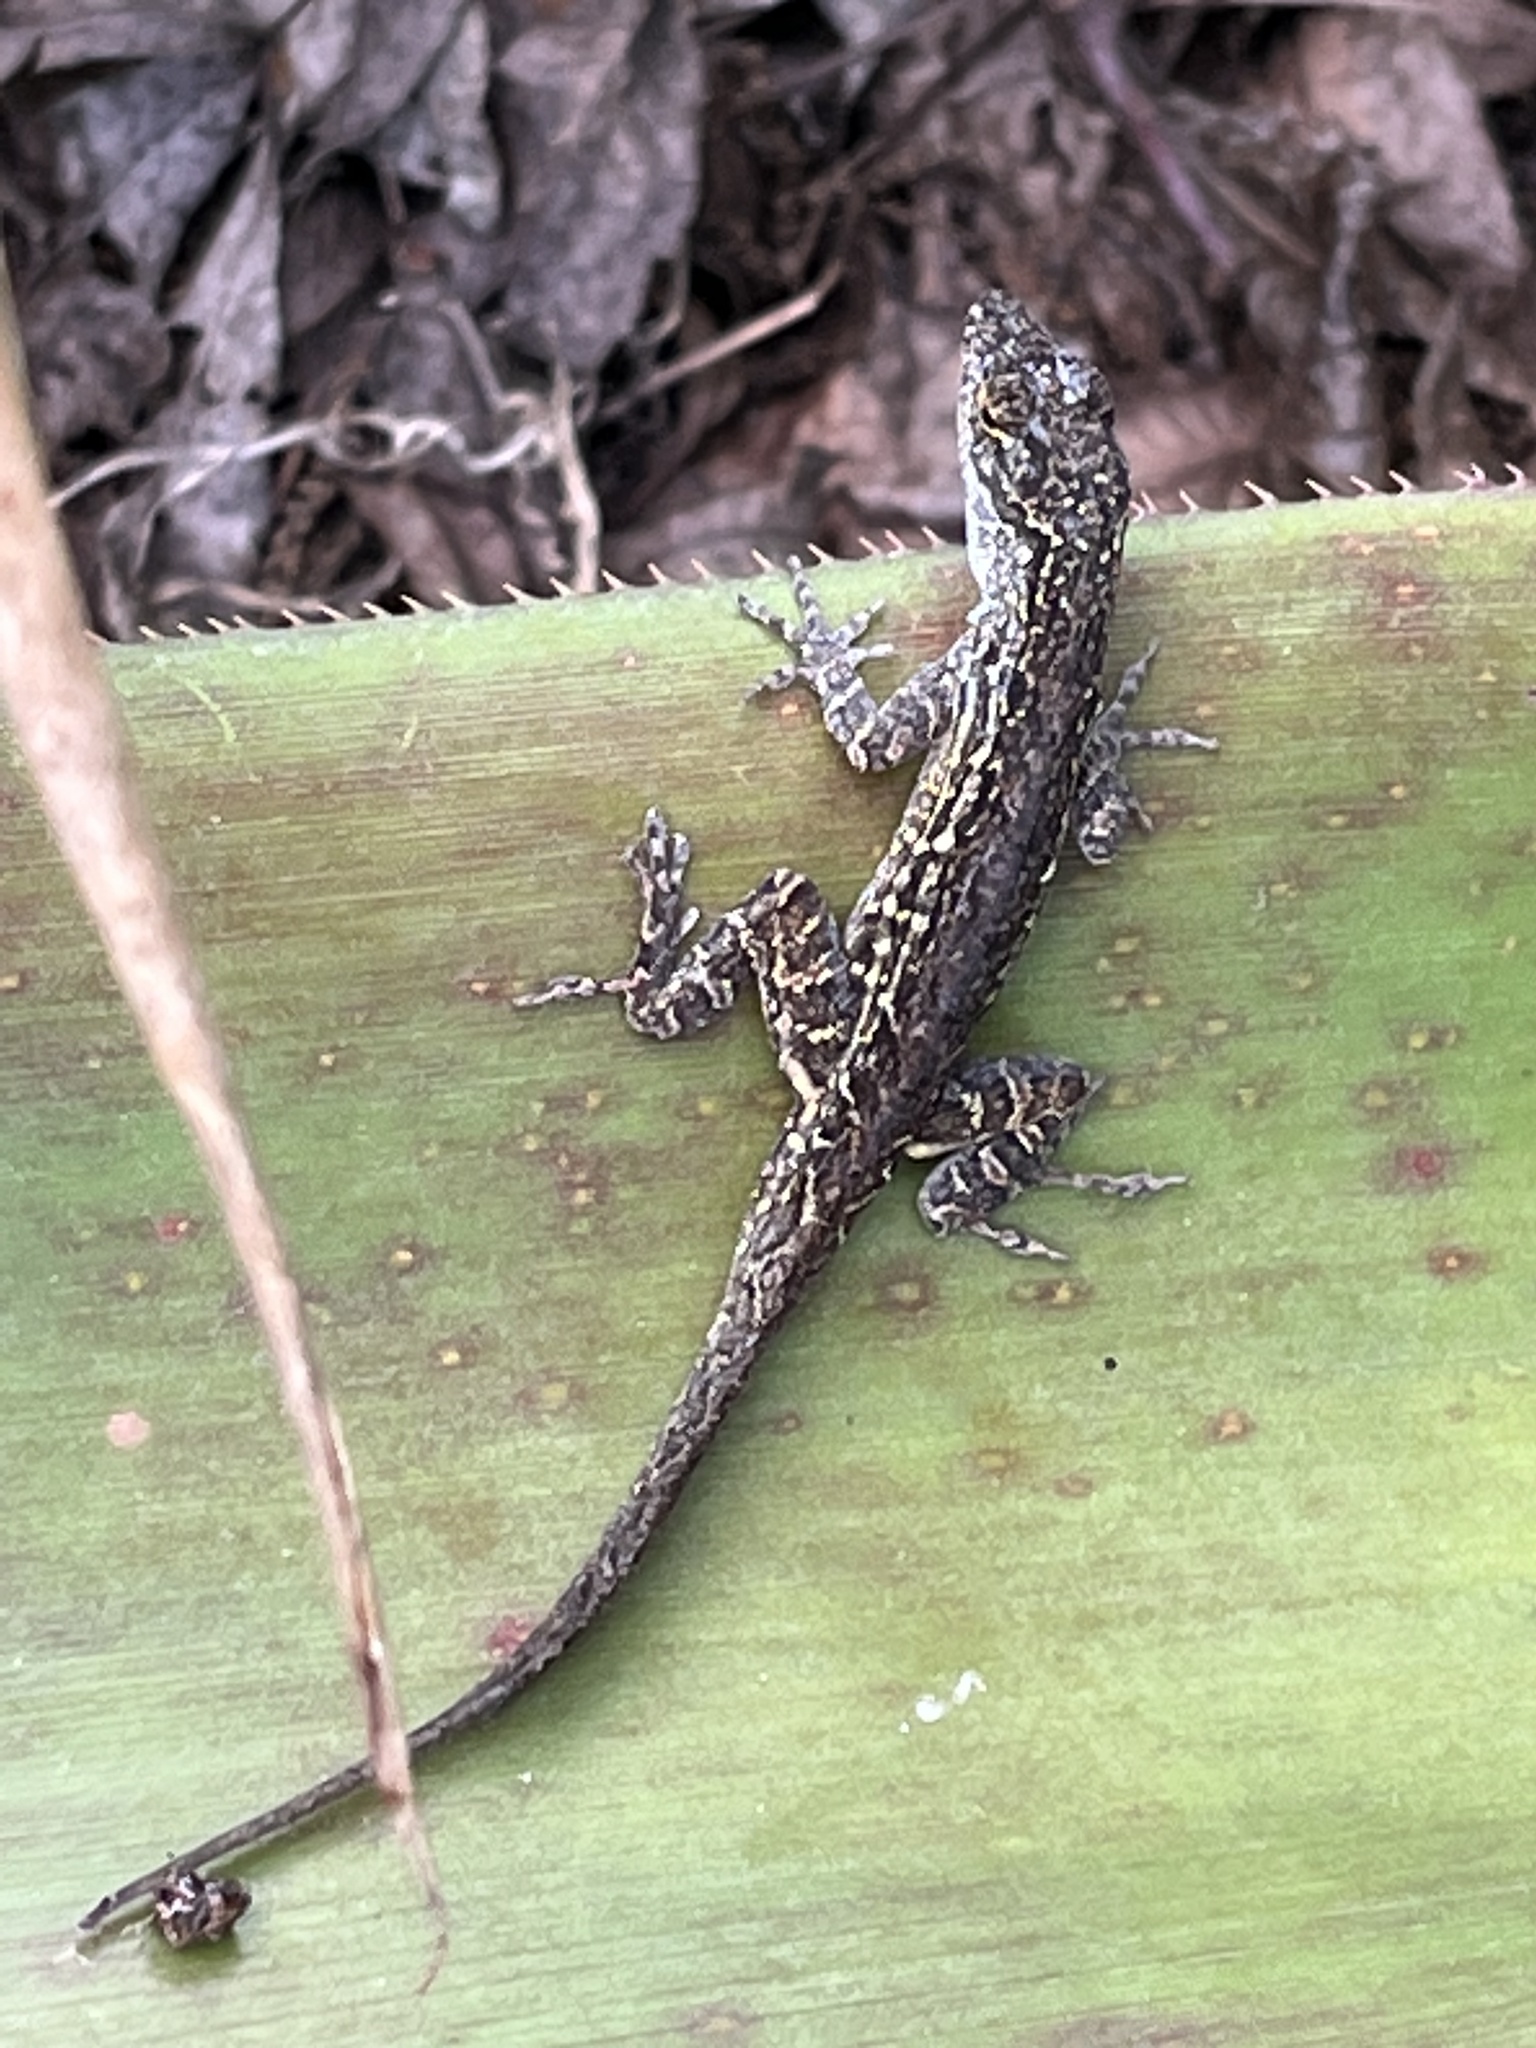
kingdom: Animalia
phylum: Chordata
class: Squamata
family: Dactyloidae
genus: Anolis
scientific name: Anolis sagrei
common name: Brown anole
